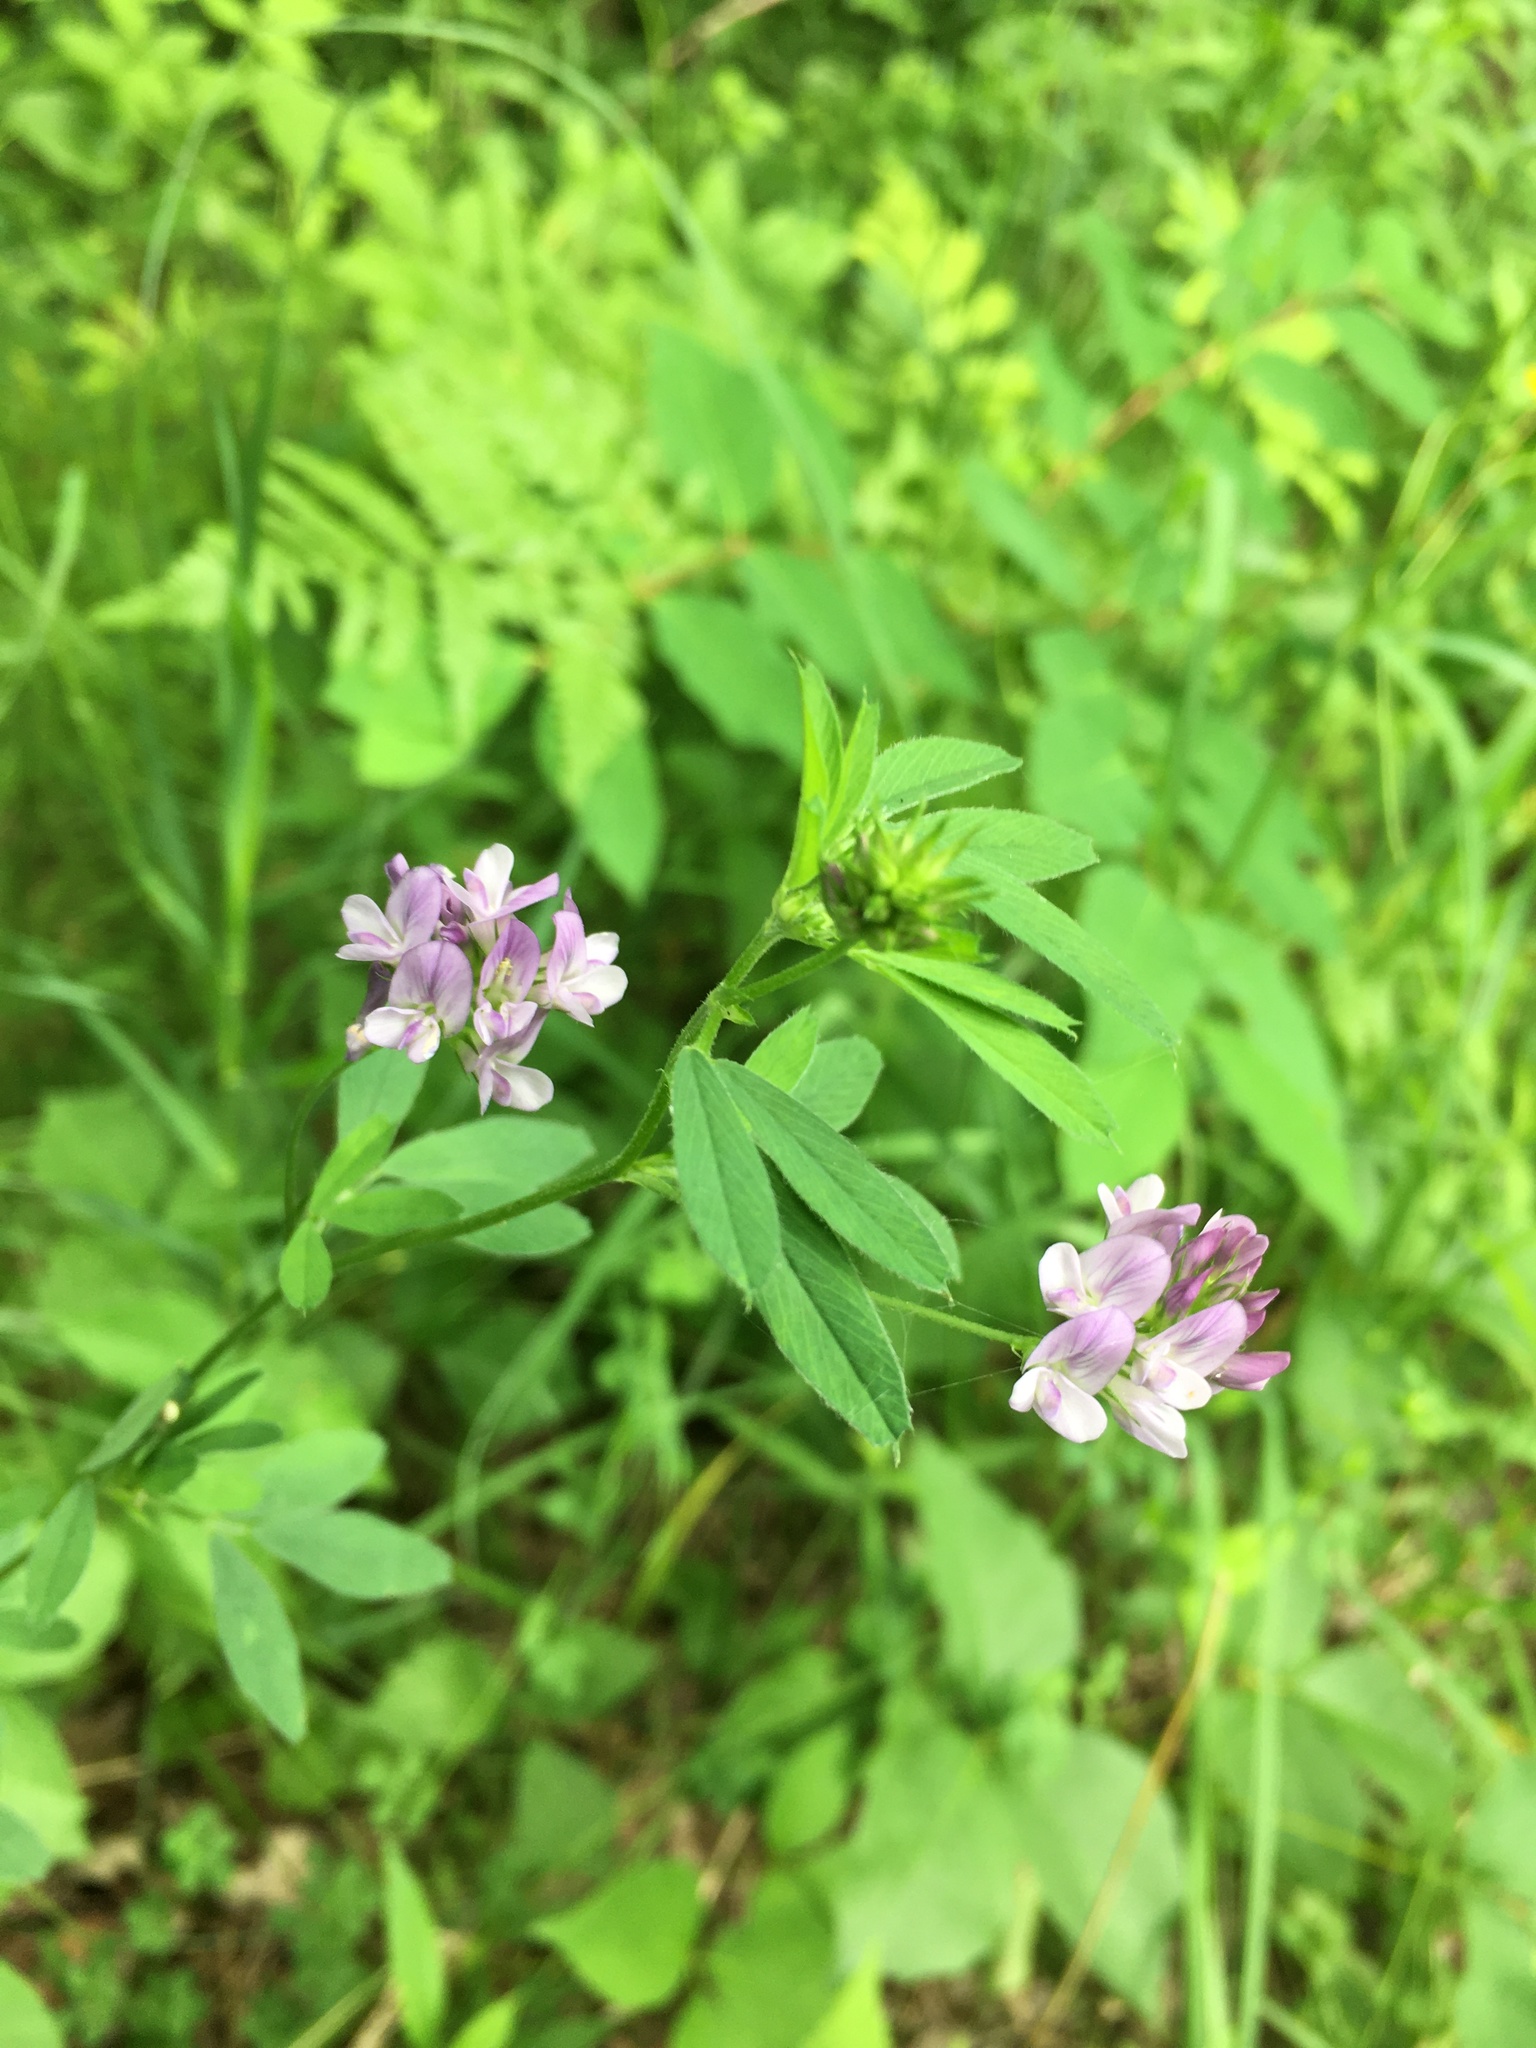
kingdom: Plantae
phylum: Tracheophyta
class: Magnoliopsida
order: Fabales
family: Fabaceae
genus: Medicago
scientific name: Medicago sativa
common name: Alfalfa
